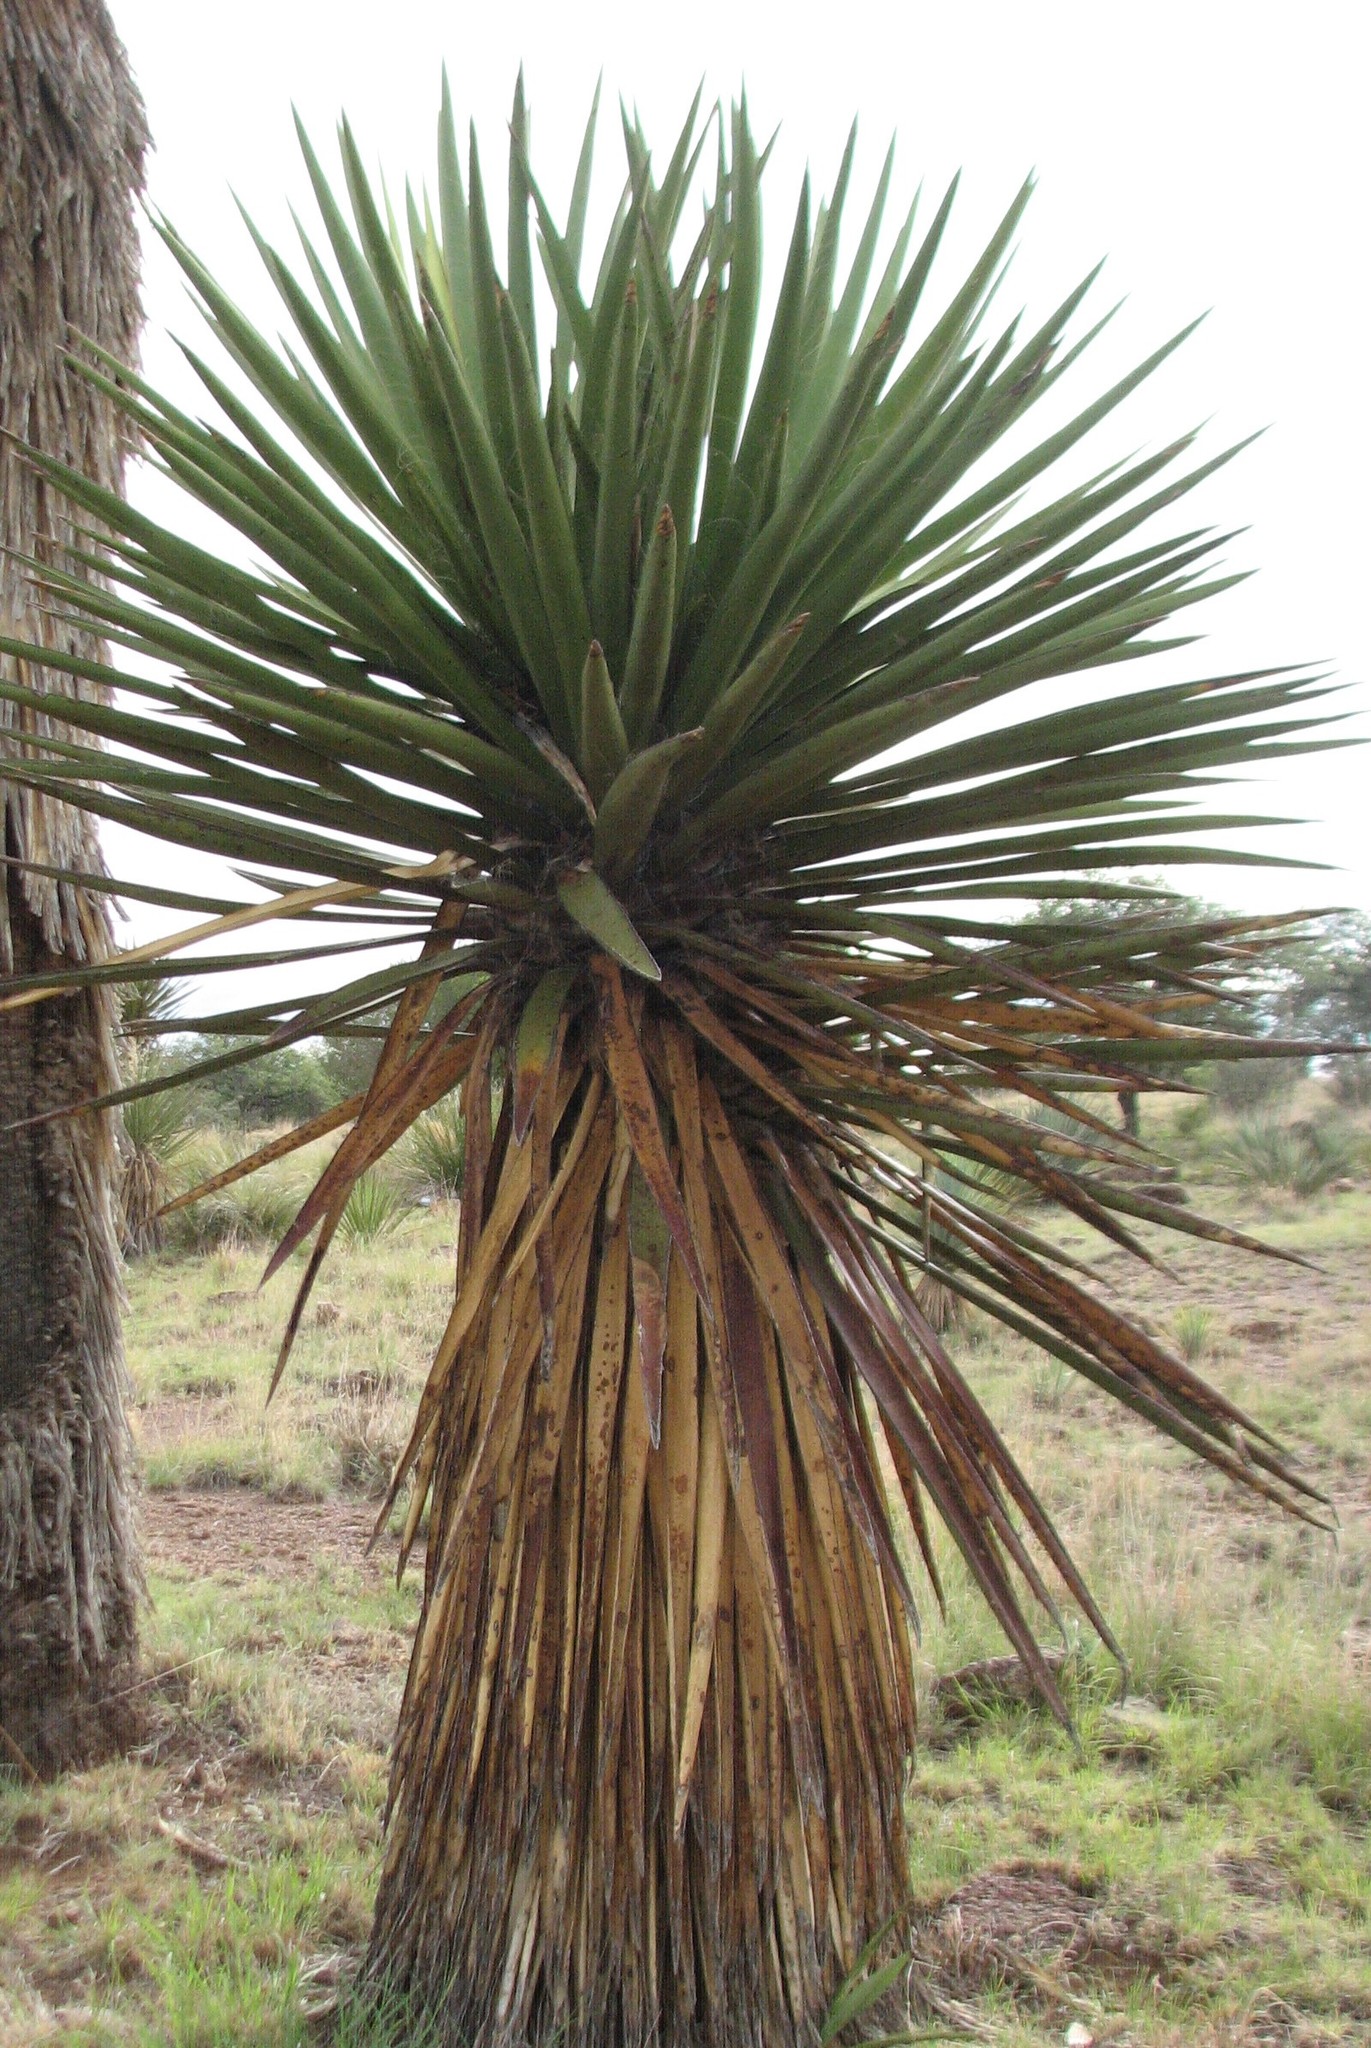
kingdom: Plantae
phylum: Tracheophyta
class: Liliopsida
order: Asparagales
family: Asparagaceae
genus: Yucca
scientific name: Yucca faxoniana
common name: Spanish dagger
